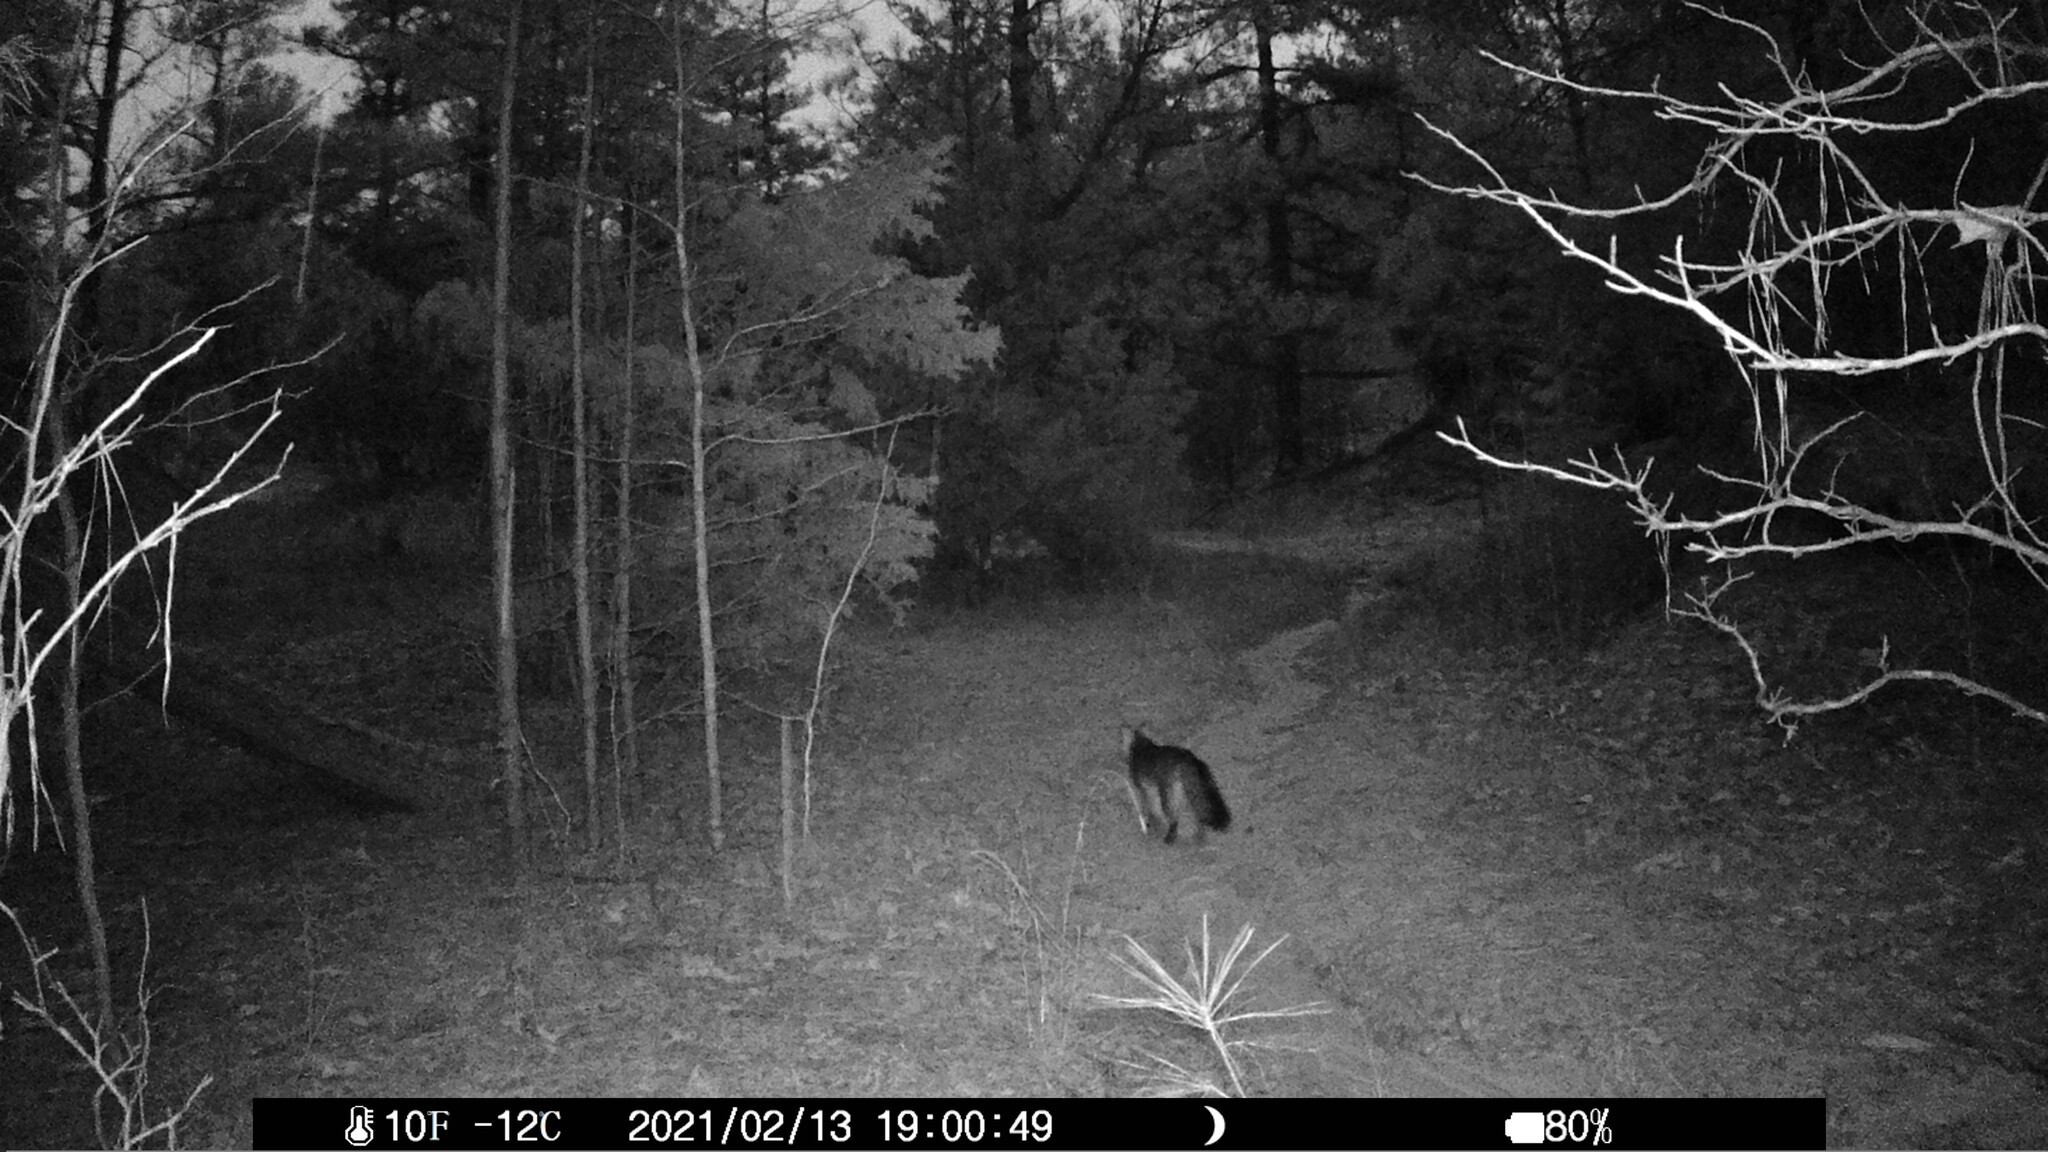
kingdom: Animalia
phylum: Chordata
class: Mammalia
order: Carnivora
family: Canidae
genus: Urocyon
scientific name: Urocyon cinereoargenteus
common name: Gray fox
